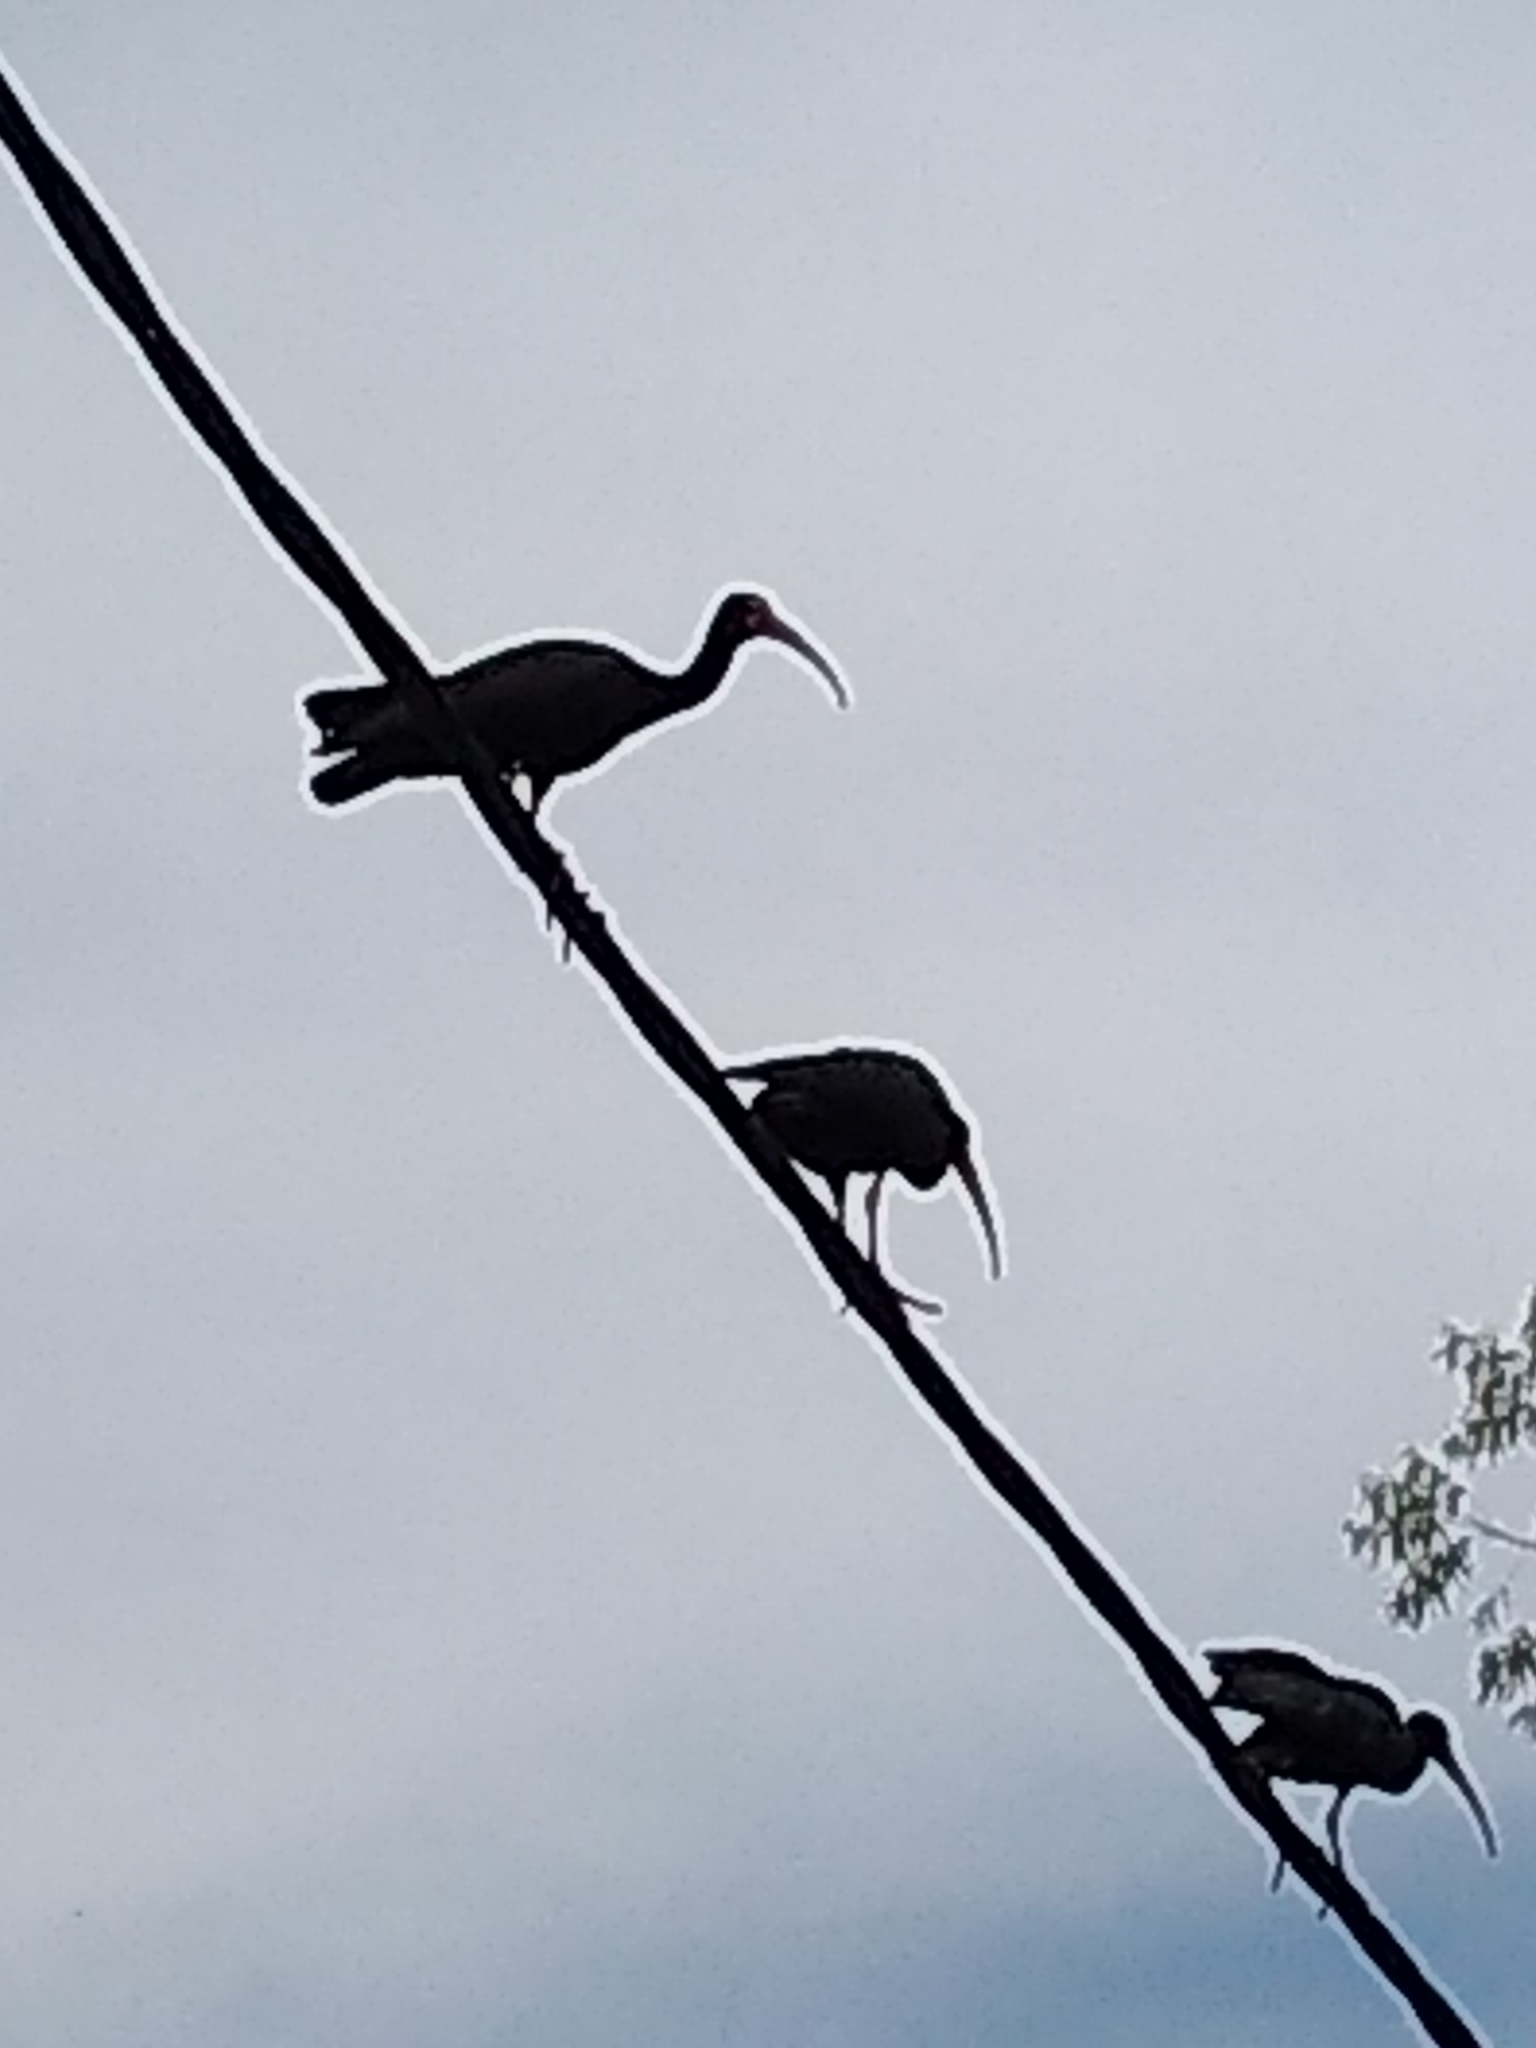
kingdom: Animalia
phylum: Chordata
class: Aves
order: Pelecaniformes
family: Threskiornithidae
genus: Plegadis
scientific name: Plegadis chihi
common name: White-faced ibis
